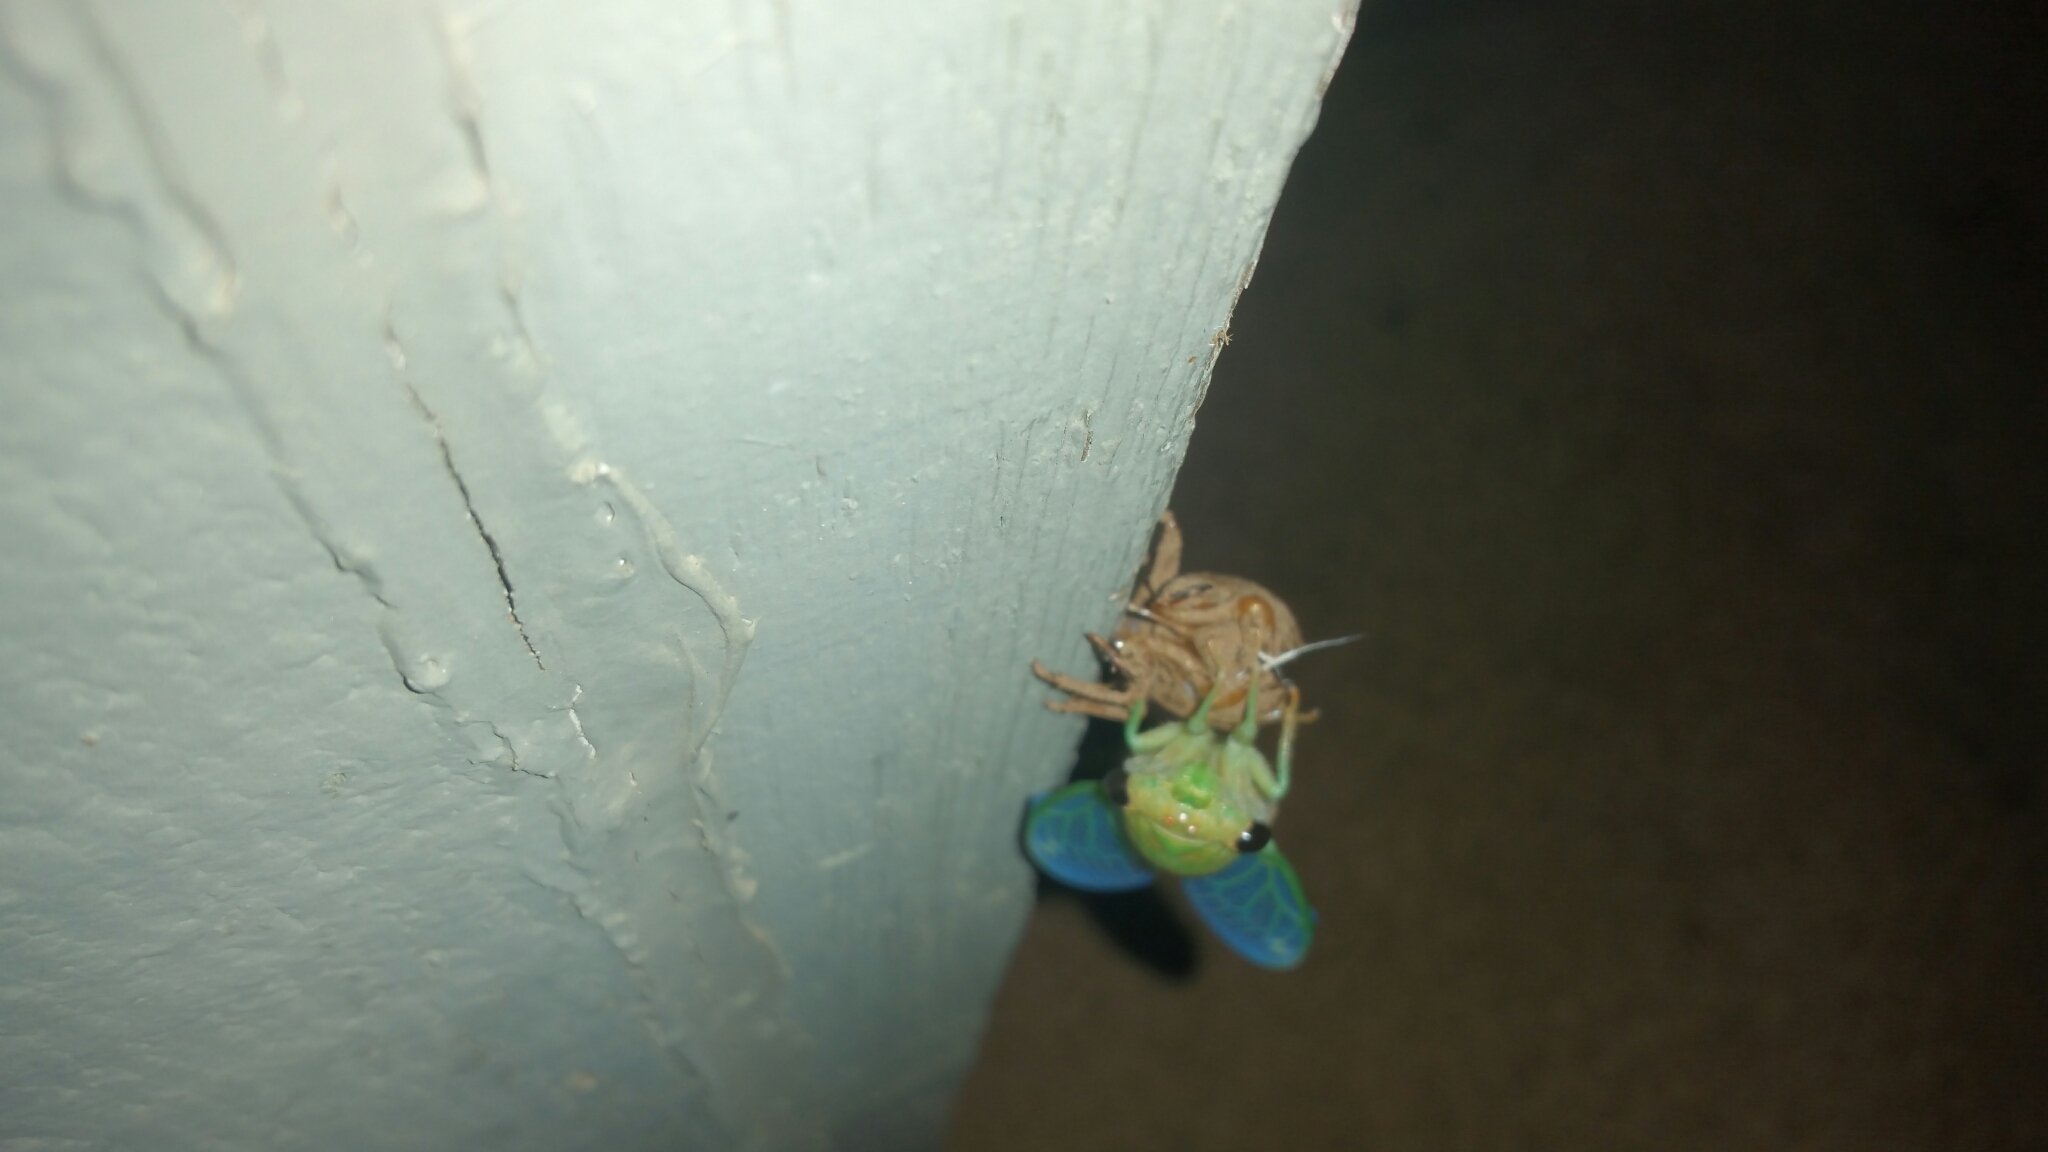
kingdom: Animalia
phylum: Arthropoda
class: Insecta
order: Hemiptera
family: Cicadidae
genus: Neotibicen
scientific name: Neotibicen superbus
